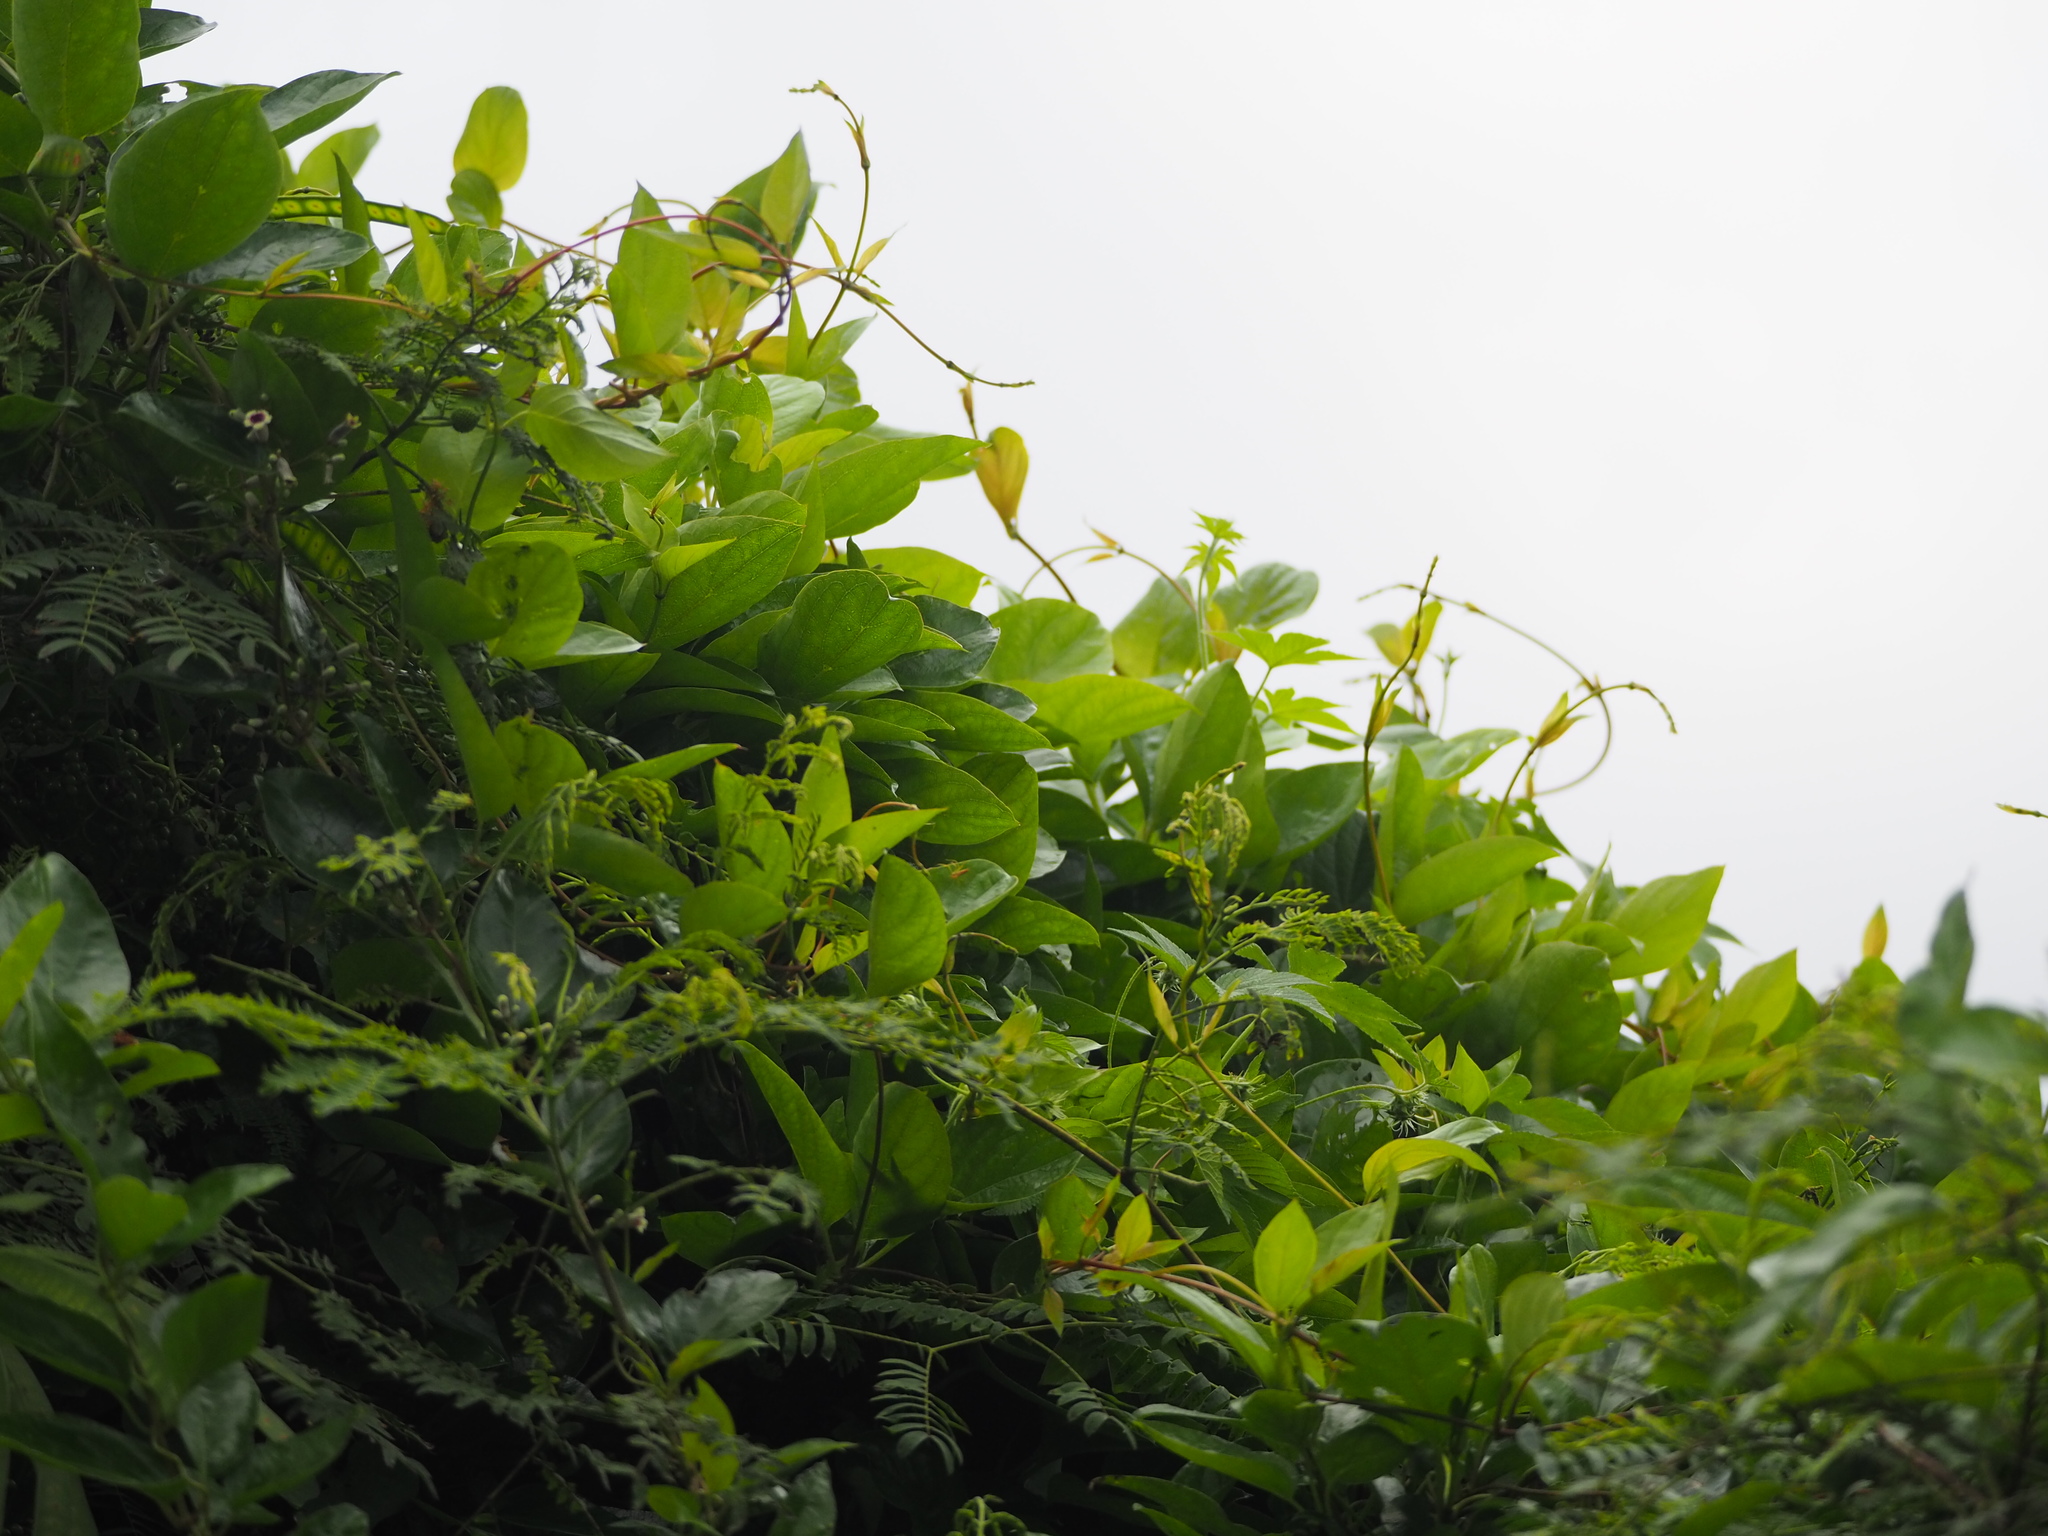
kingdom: Plantae
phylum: Tracheophyta
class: Magnoliopsida
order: Gentianales
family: Rubiaceae
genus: Paederia
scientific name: Paederia foetida
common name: Stinkvine
